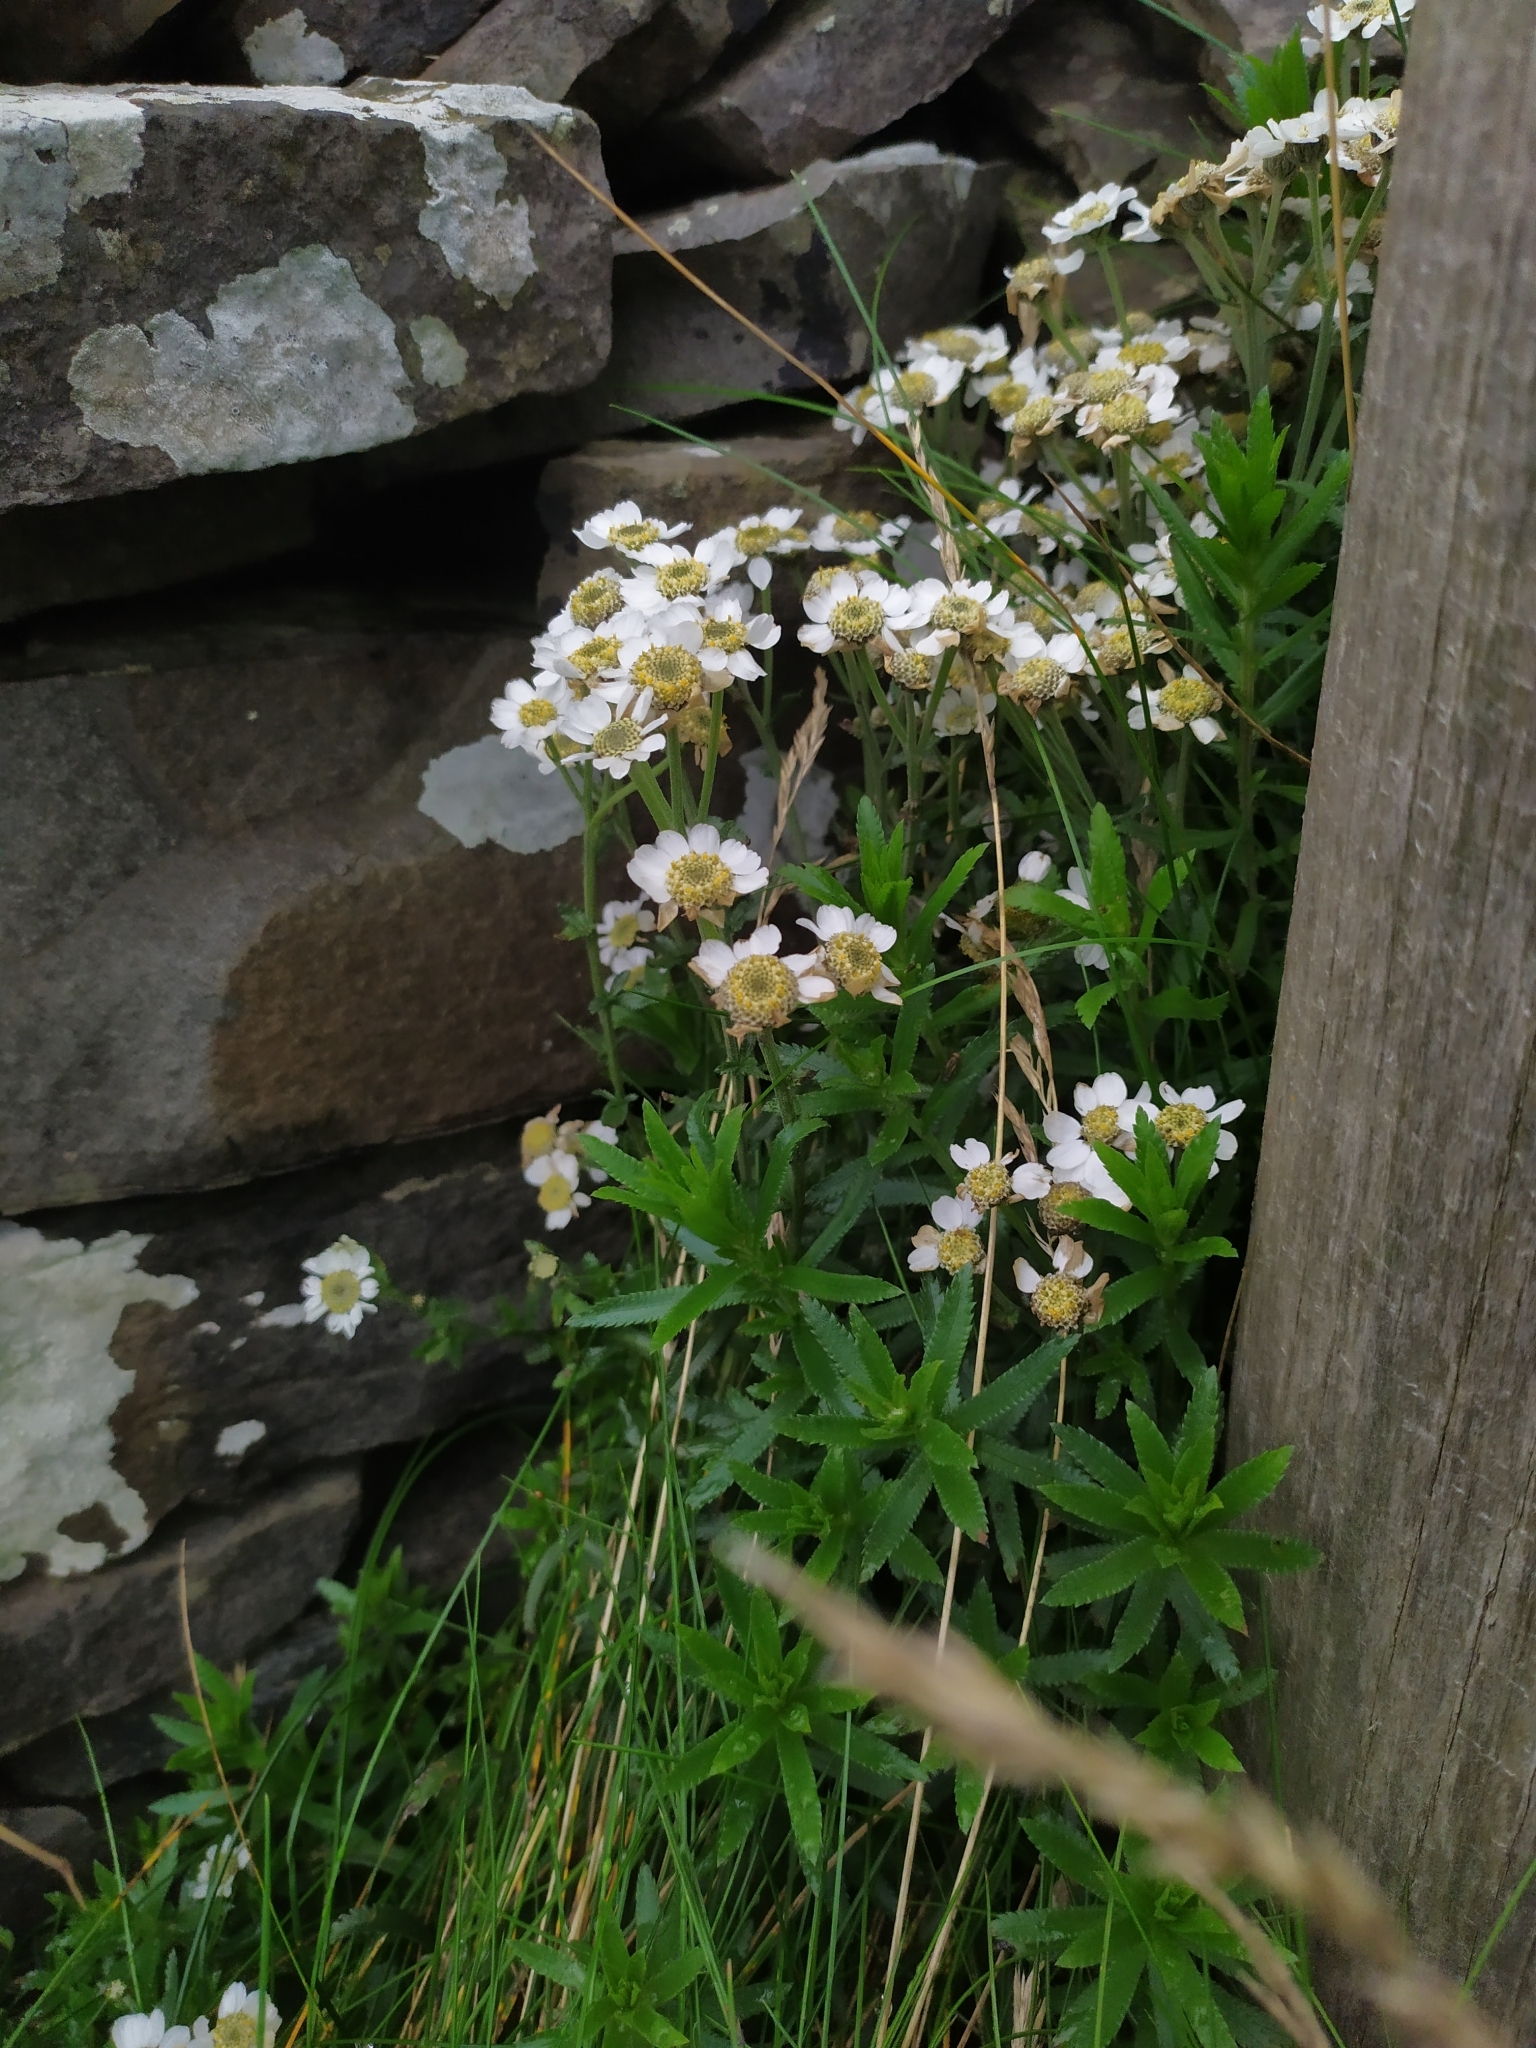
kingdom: Plantae
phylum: Tracheophyta
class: Magnoliopsida
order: Asterales
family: Asteraceae
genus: Achillea
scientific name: Achillea ptarmica
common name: Sneezeweed
